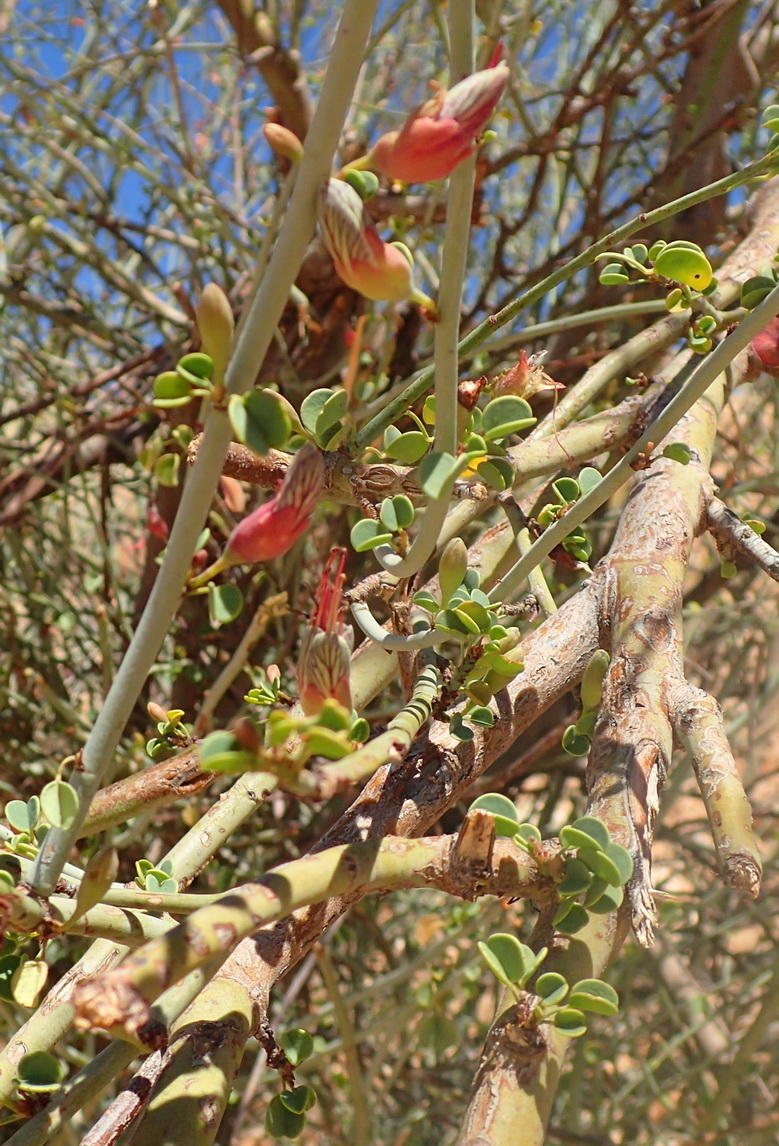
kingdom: Plantae
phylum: Tracheophyta
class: Magnoliopsida
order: Fabales
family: Fabaceae
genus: Adenolobus
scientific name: Adenolobus garipensis
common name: Butterfly-leaf
